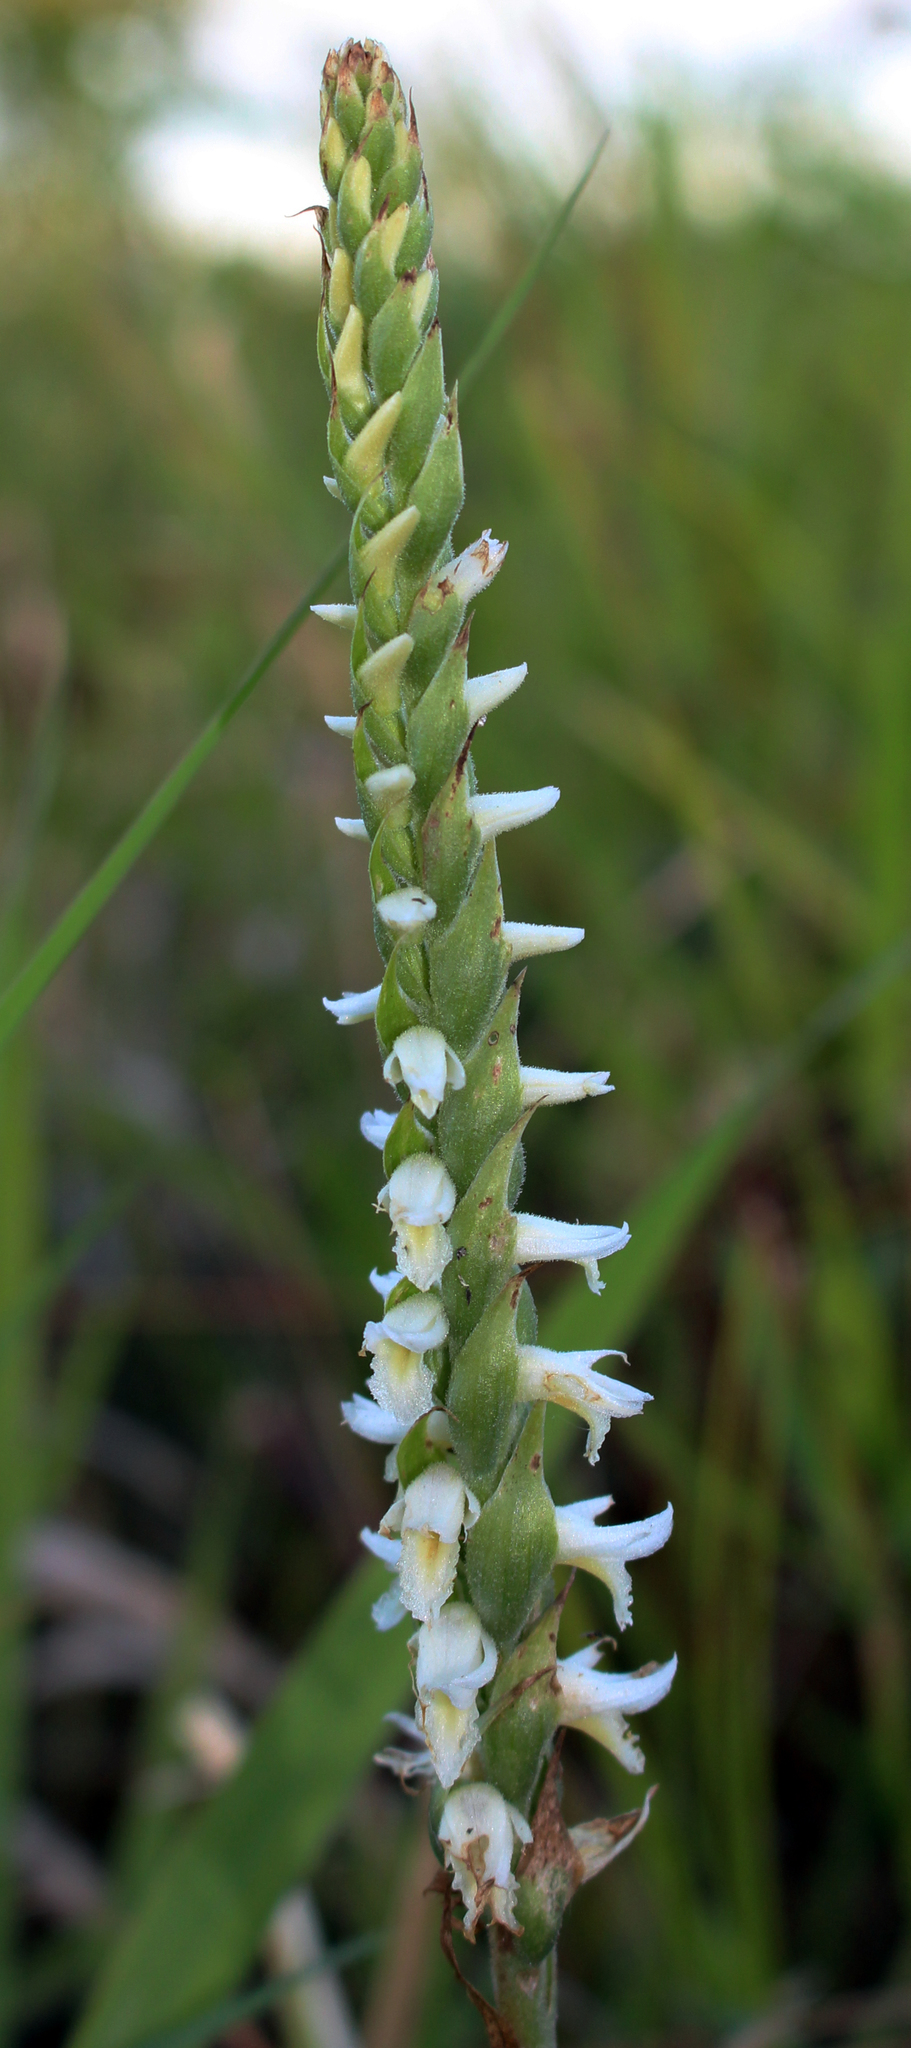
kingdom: Plantae
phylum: Tracheophyta
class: Liliopsida
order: Asparagales
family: Orchidaceae
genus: Spiranthes
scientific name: Spiranthes magnicamporum
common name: Great plains ladies'-tresses
